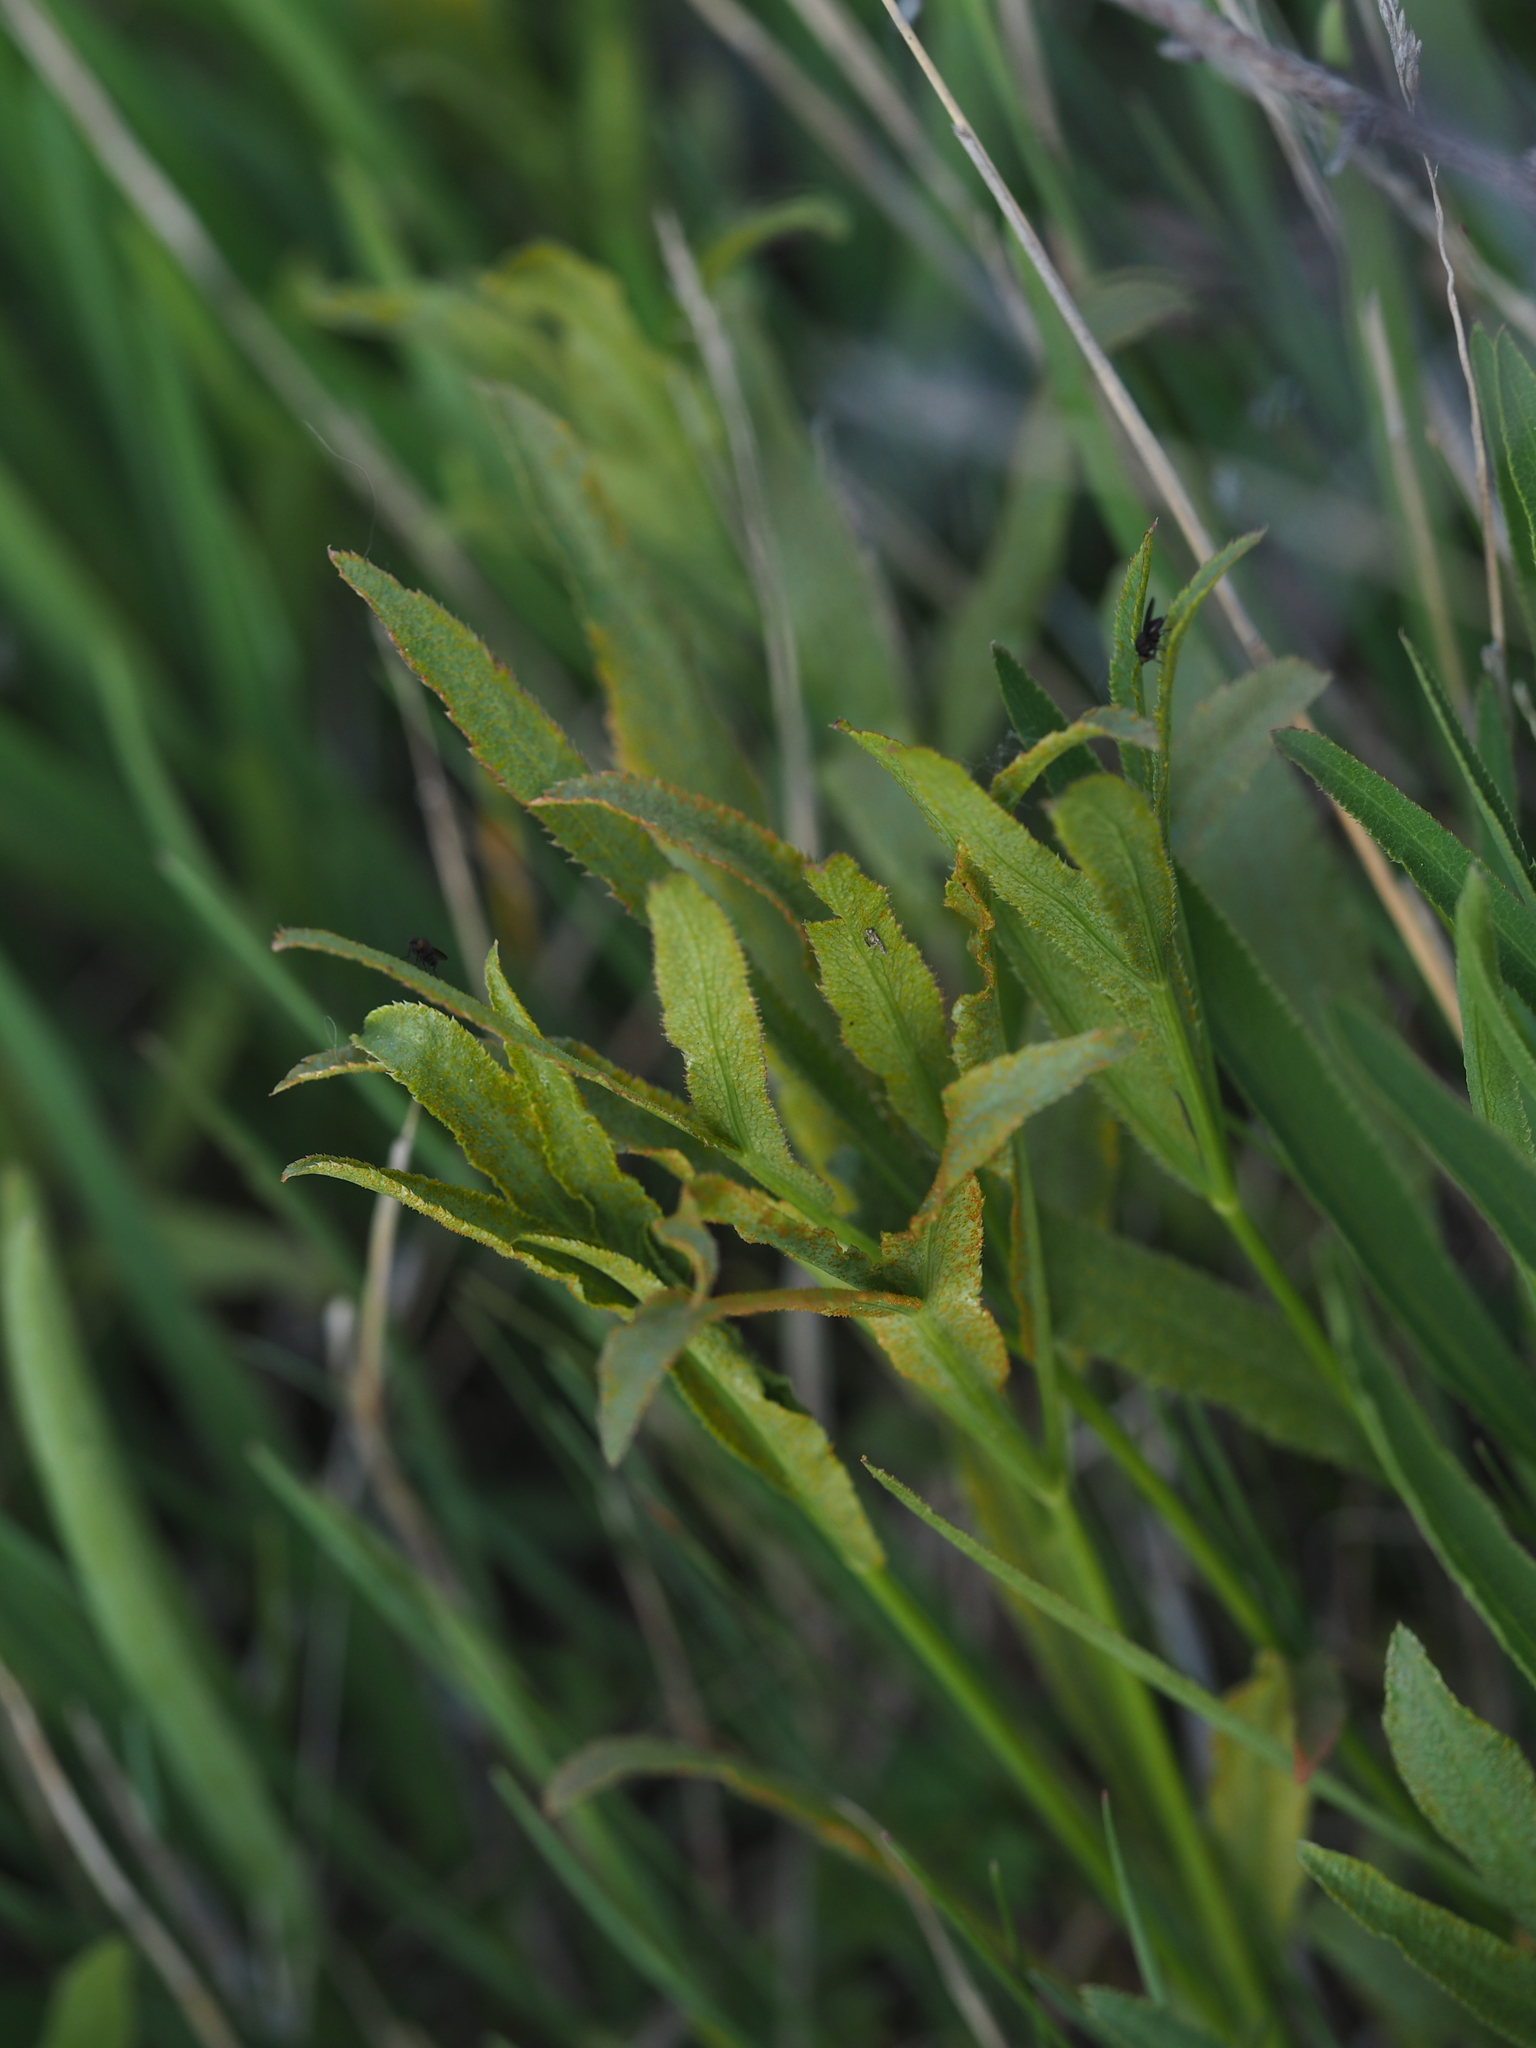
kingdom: Plantae
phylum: Tracheophyta
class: Magnoliopsida
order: Apiales
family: Apiaceae
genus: Falcaria
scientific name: Falcaria vulgaris
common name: Longleaf
